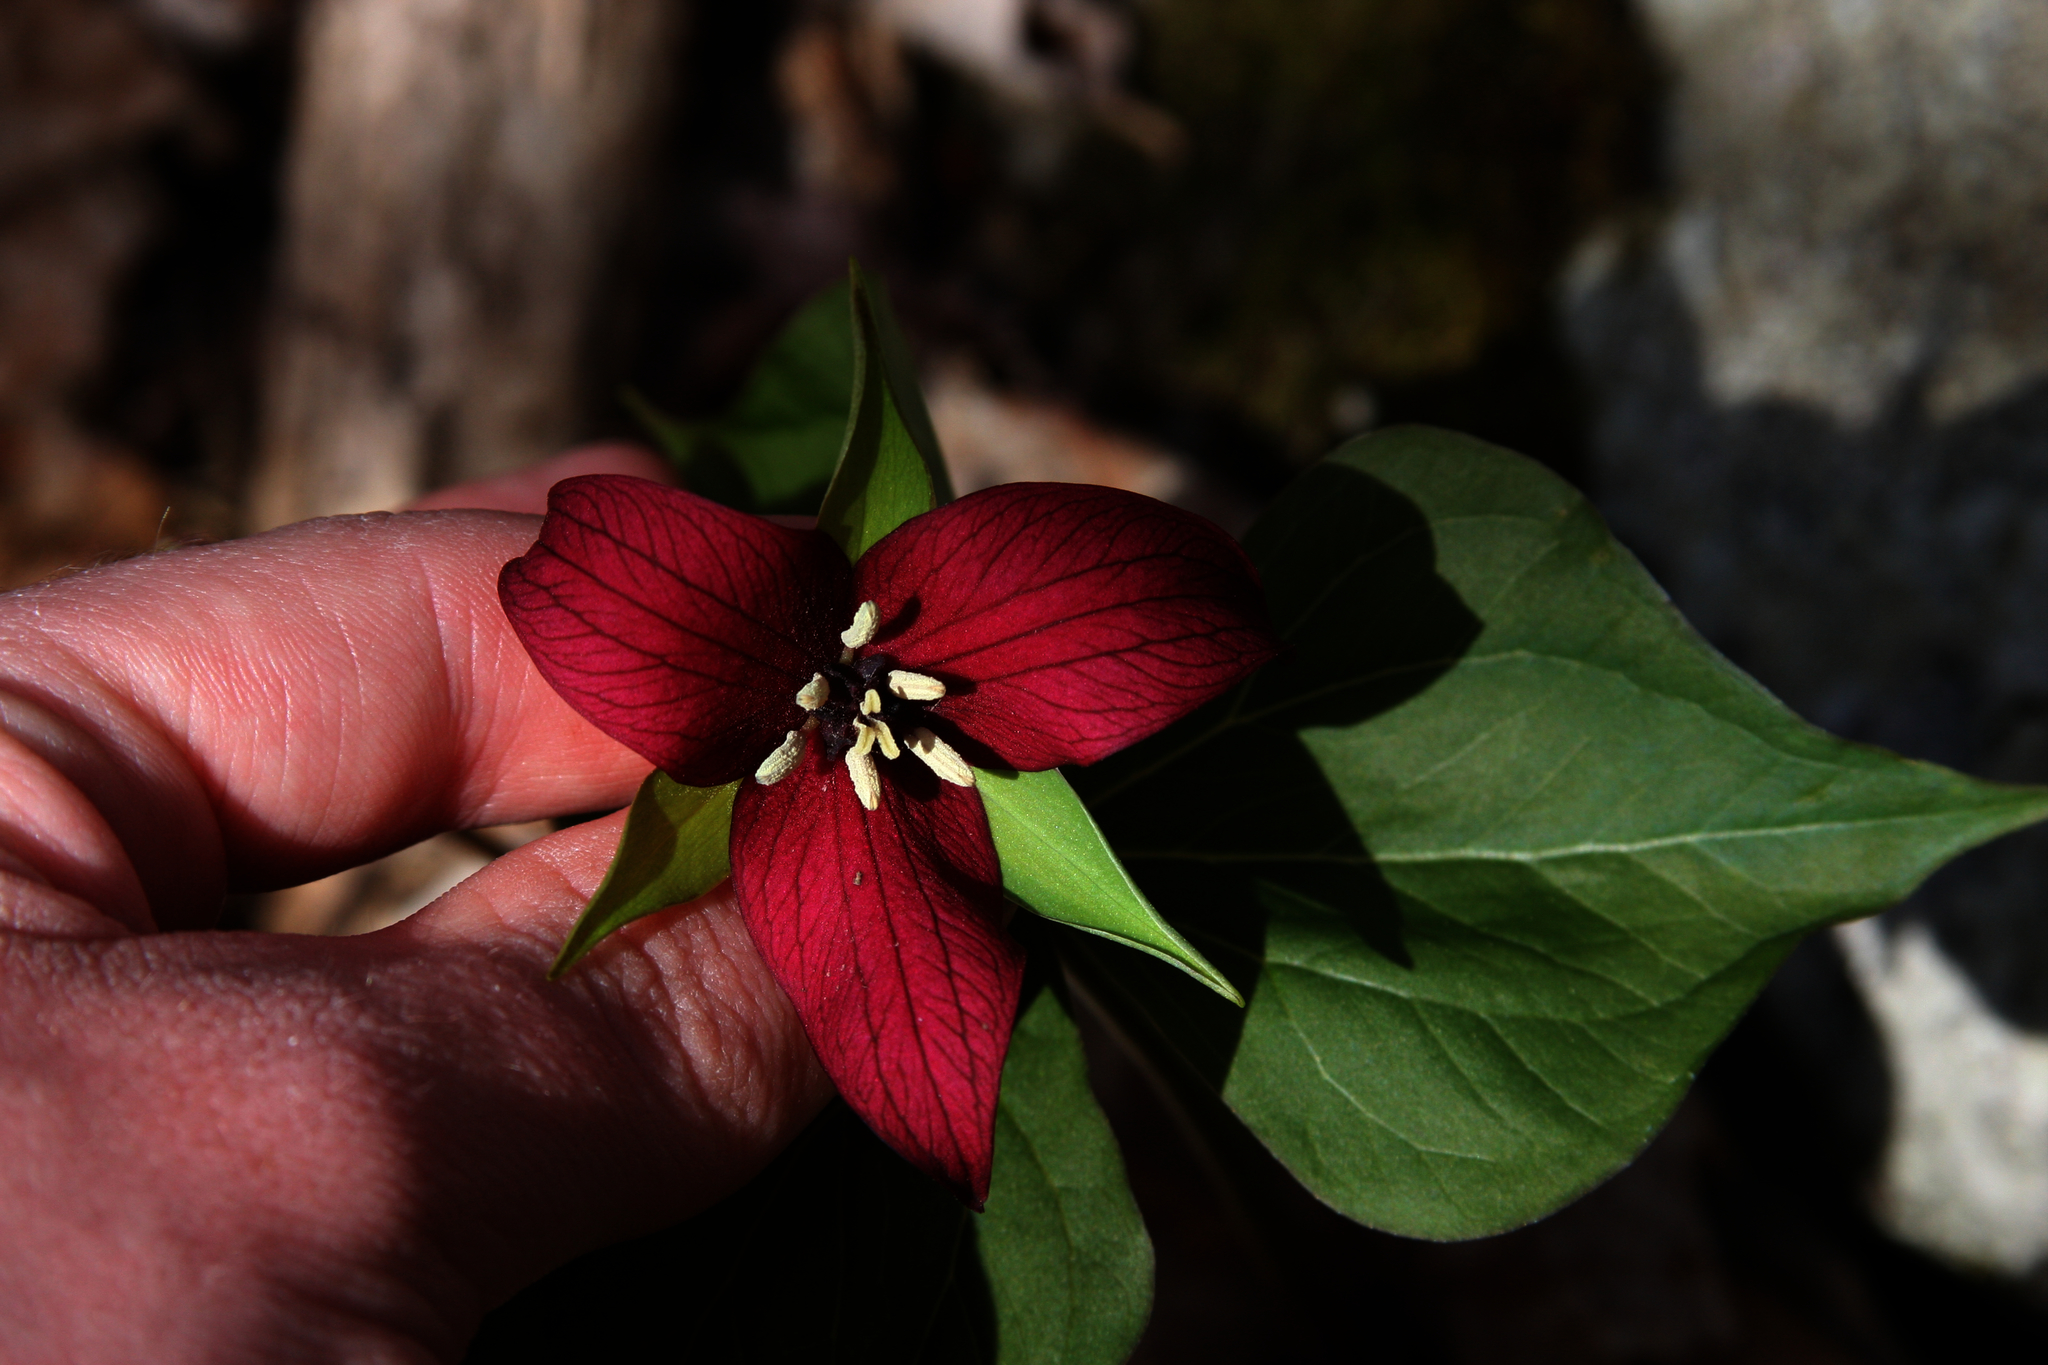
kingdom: Plantae
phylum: Tracheophyta
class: Liliopsida
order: Liliales
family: Melanthiaceae
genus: Trillium
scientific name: Trillium erectum
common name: Purple trillium
